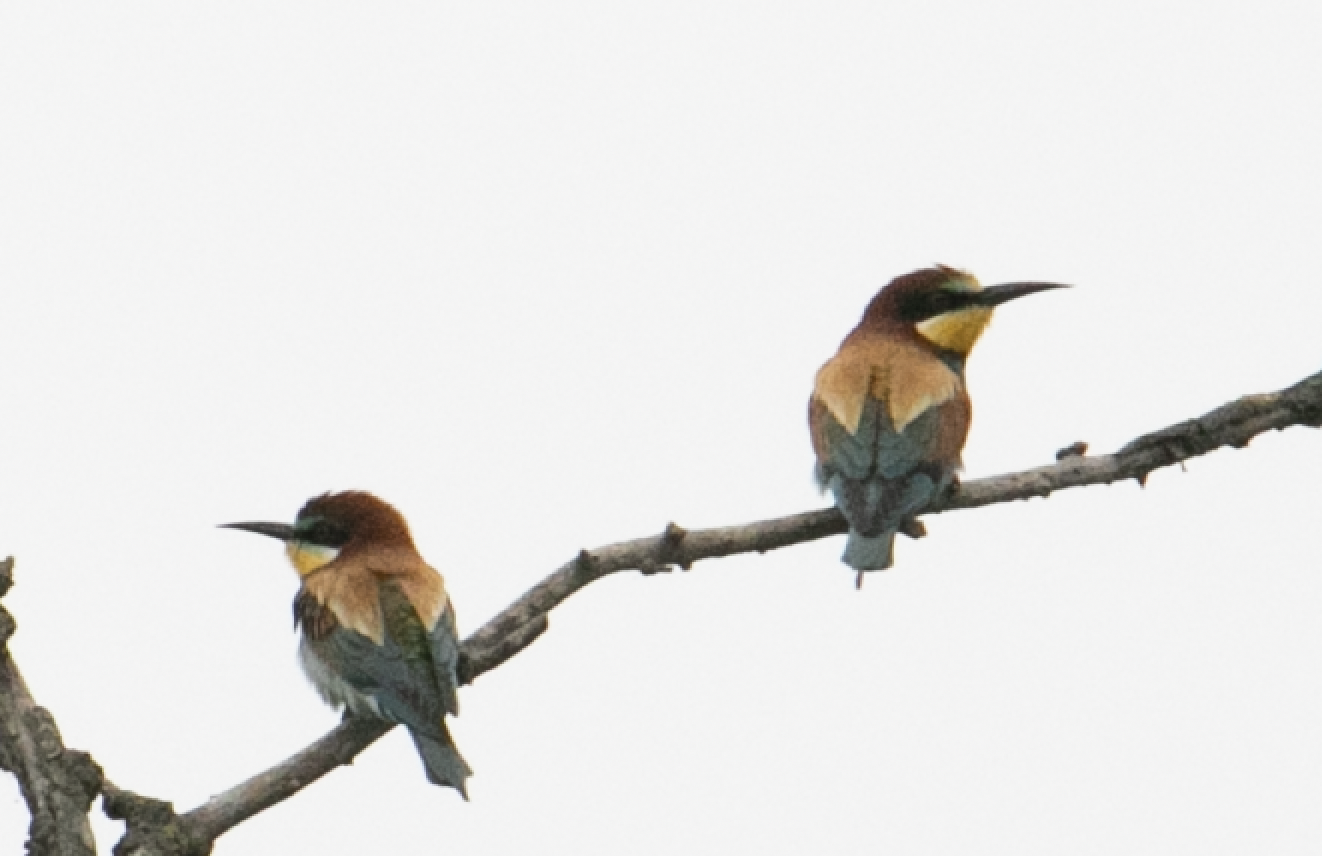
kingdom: Animalia
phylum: Chordata
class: Aves
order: Coraciiformes
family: Meropidae
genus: Merops
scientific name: Merops apiaster
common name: European bee-eater
